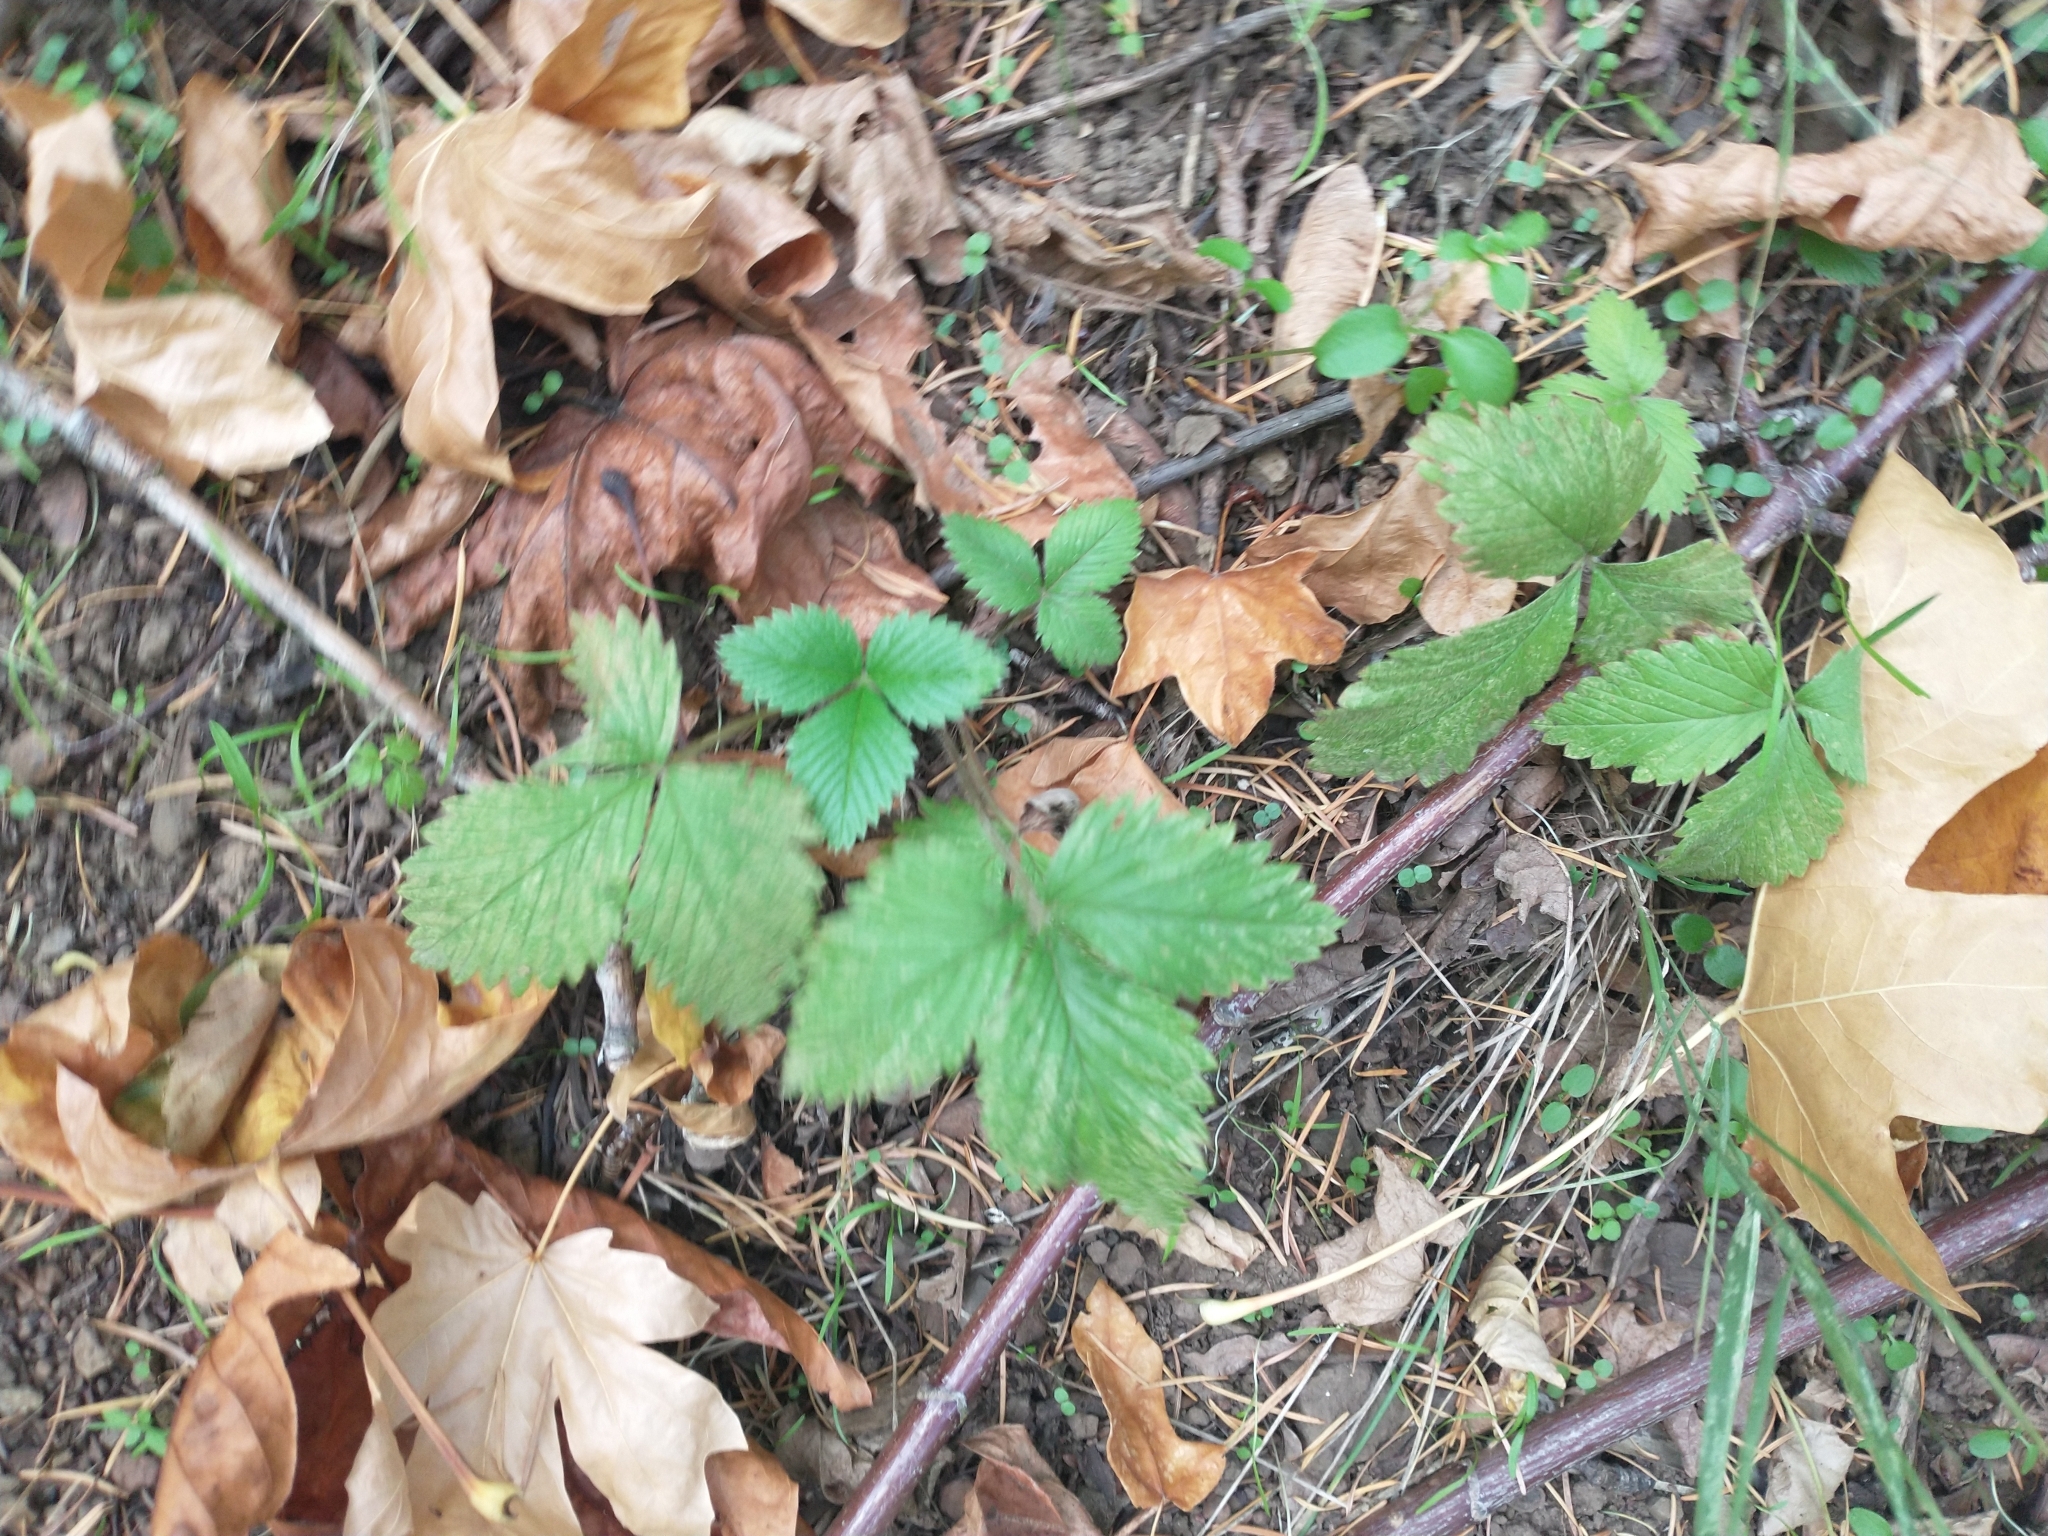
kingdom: Plantae
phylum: Tracheophyta
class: Magnoliopsida
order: Rosales
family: Rosaceae
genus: Fragaria
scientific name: Fragaria vesca
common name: Wild strawberry
